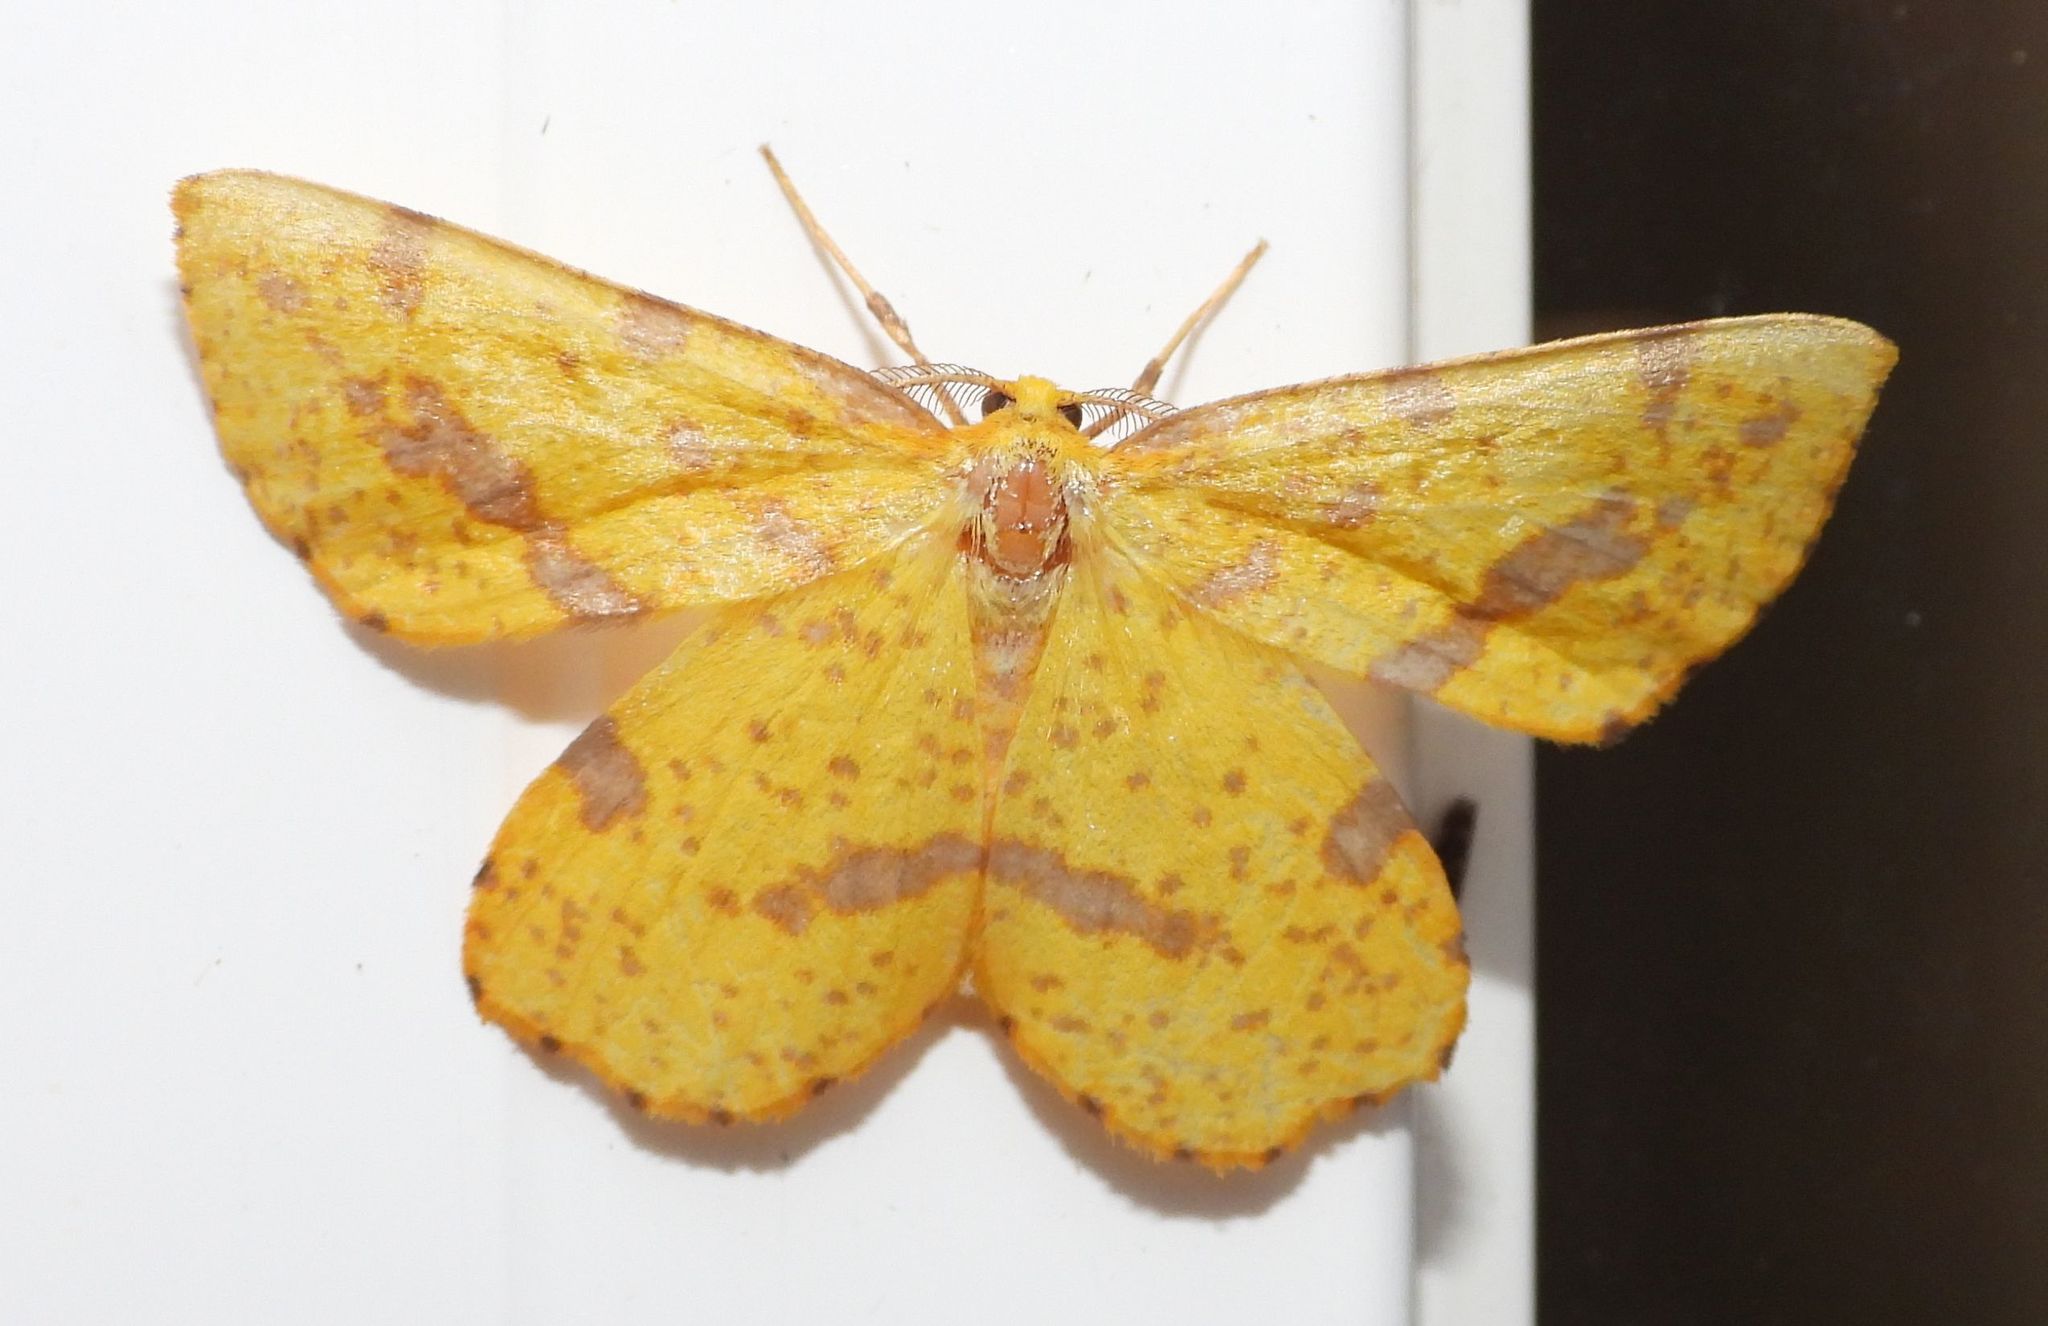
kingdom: Animalia
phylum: Arthropoda
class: Insecta
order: Lepidoptera
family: Geometridae
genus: Xanthotype
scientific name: Xanthotype
